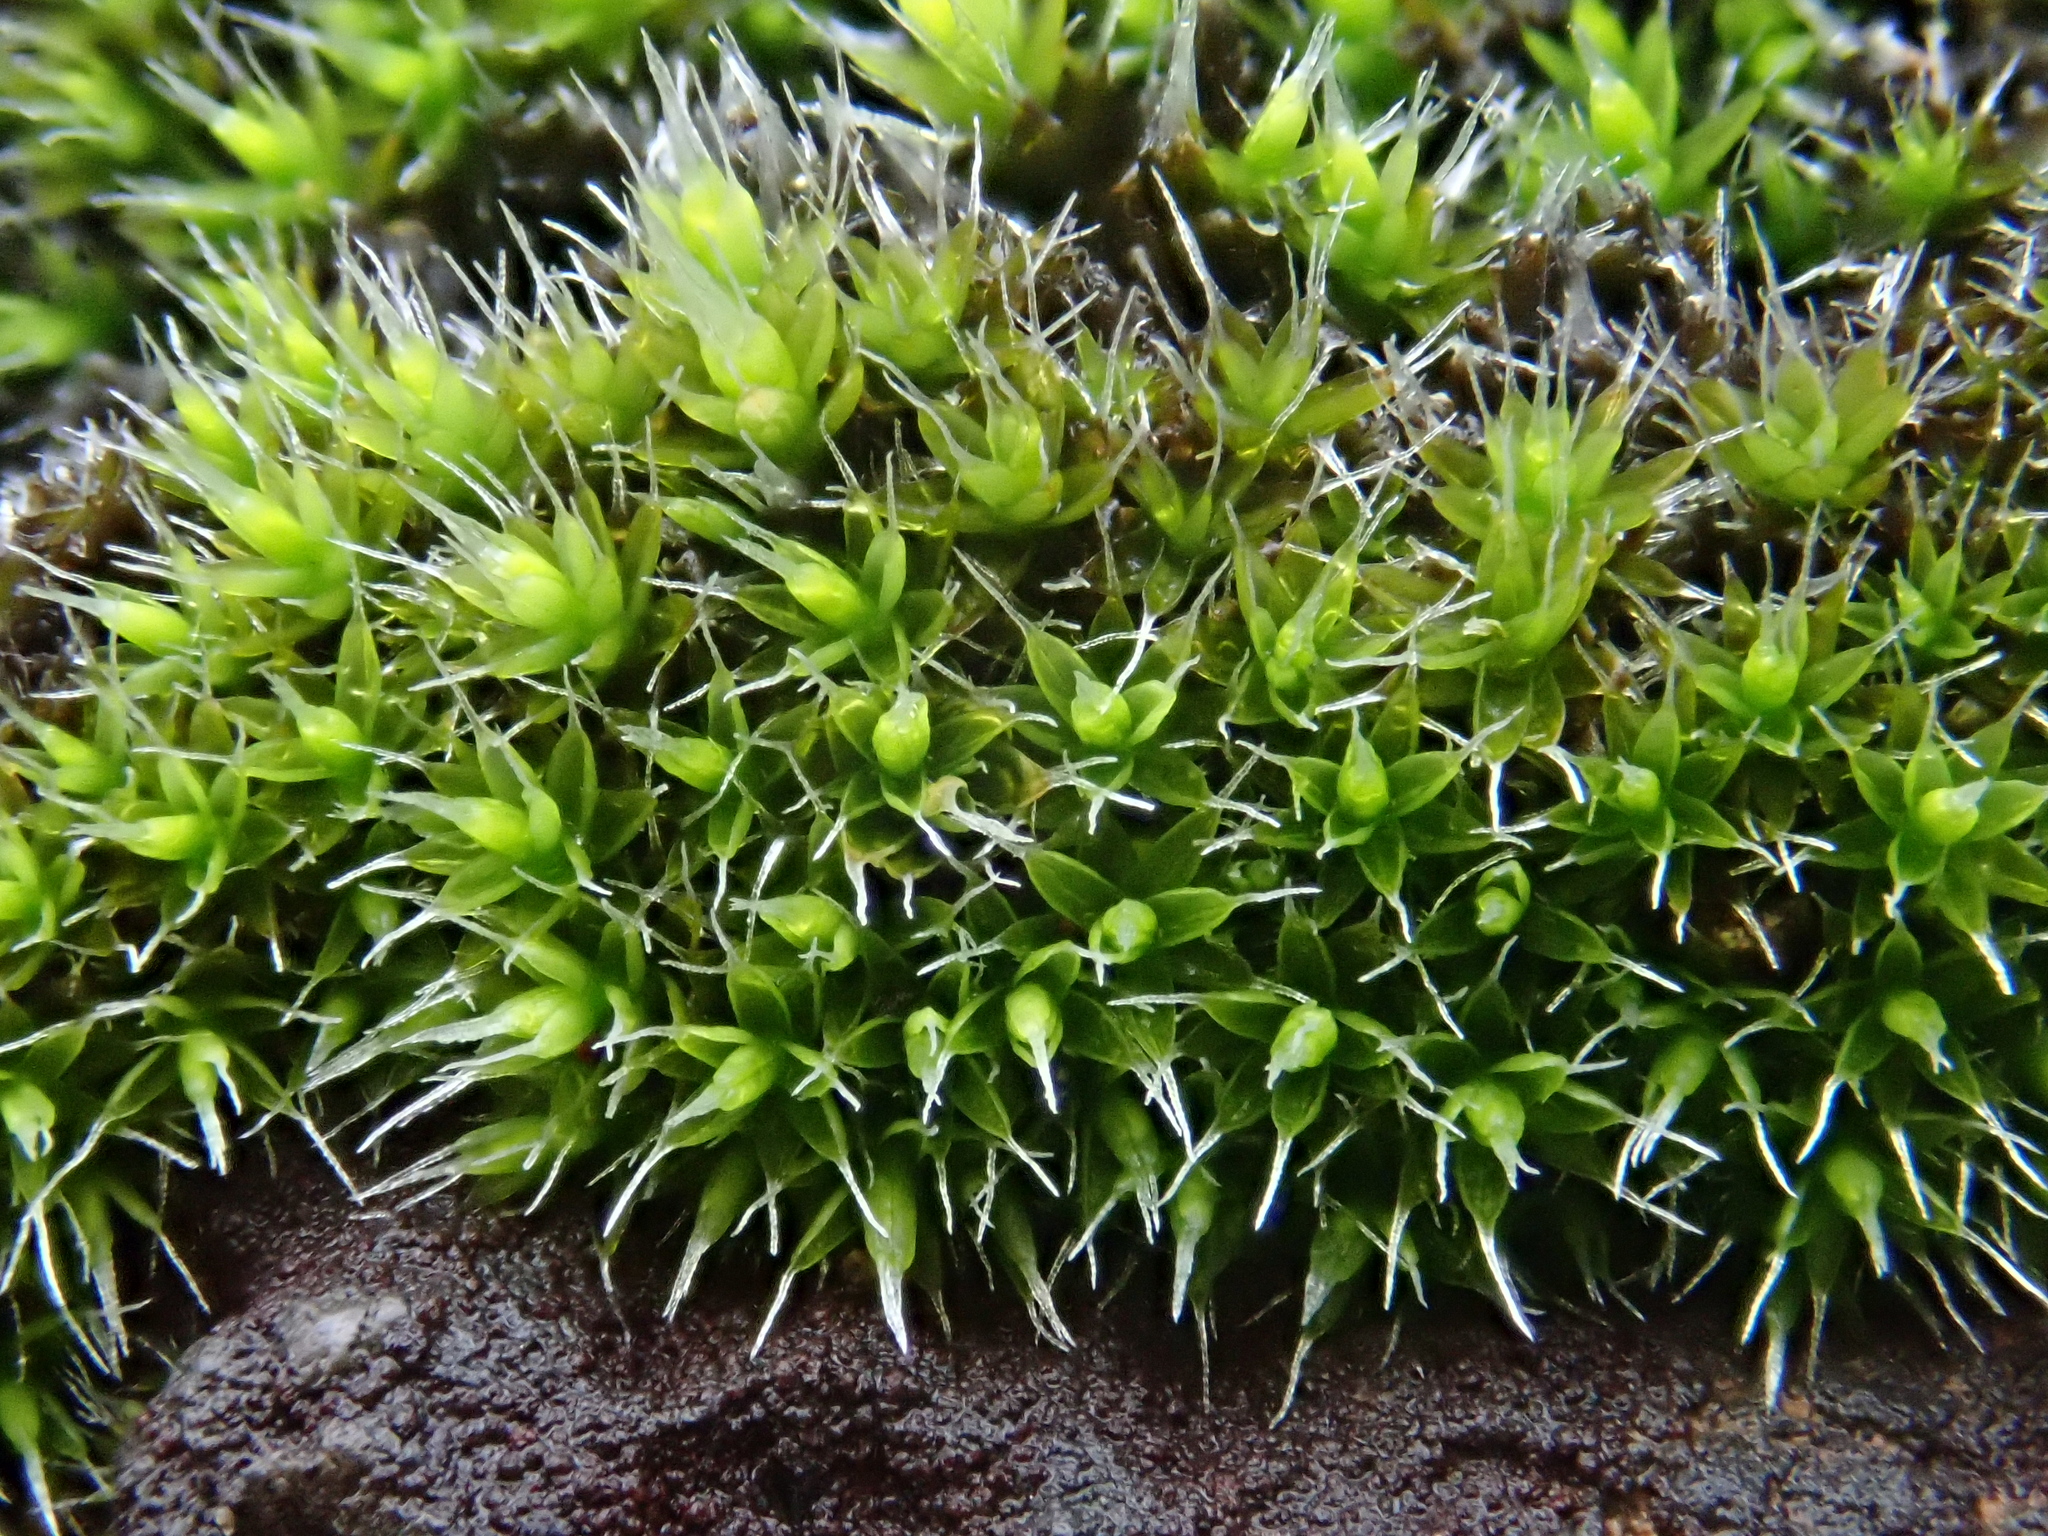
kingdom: Plantae
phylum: Bryophyta
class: Bryopsida
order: Grimmiales
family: Grimmiaceae
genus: Grimmia
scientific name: Grimmia laevigata
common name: Hoary grimmia
